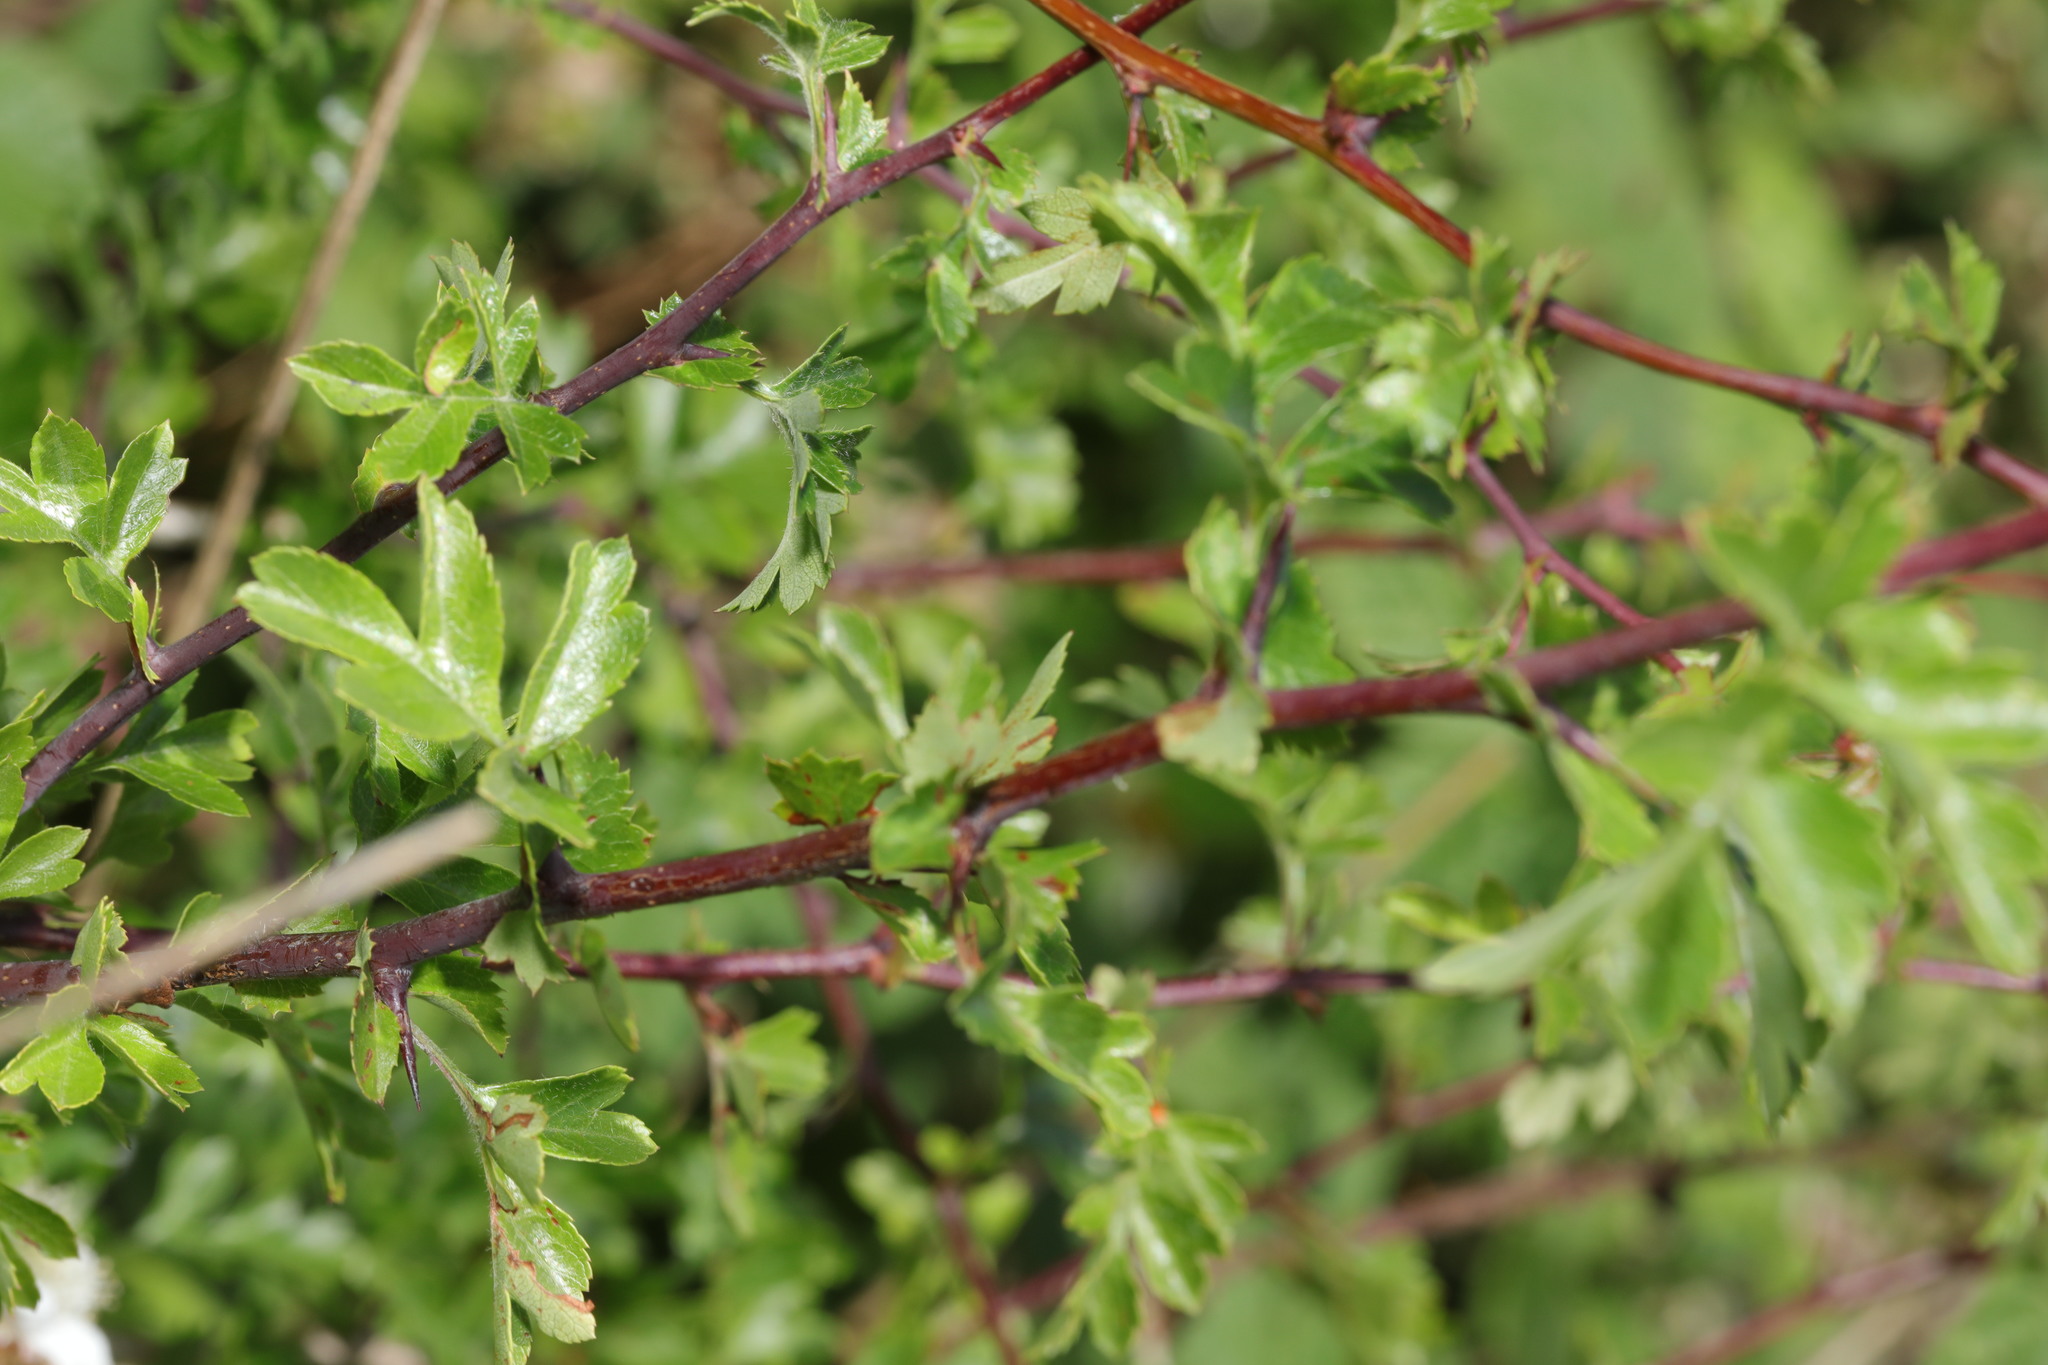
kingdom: Plantae
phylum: Tracheophyta
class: Magnoliopsida
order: Rosales
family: Rosaceae
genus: Crataegus
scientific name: Crataegus monogyna
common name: Hawthorn
